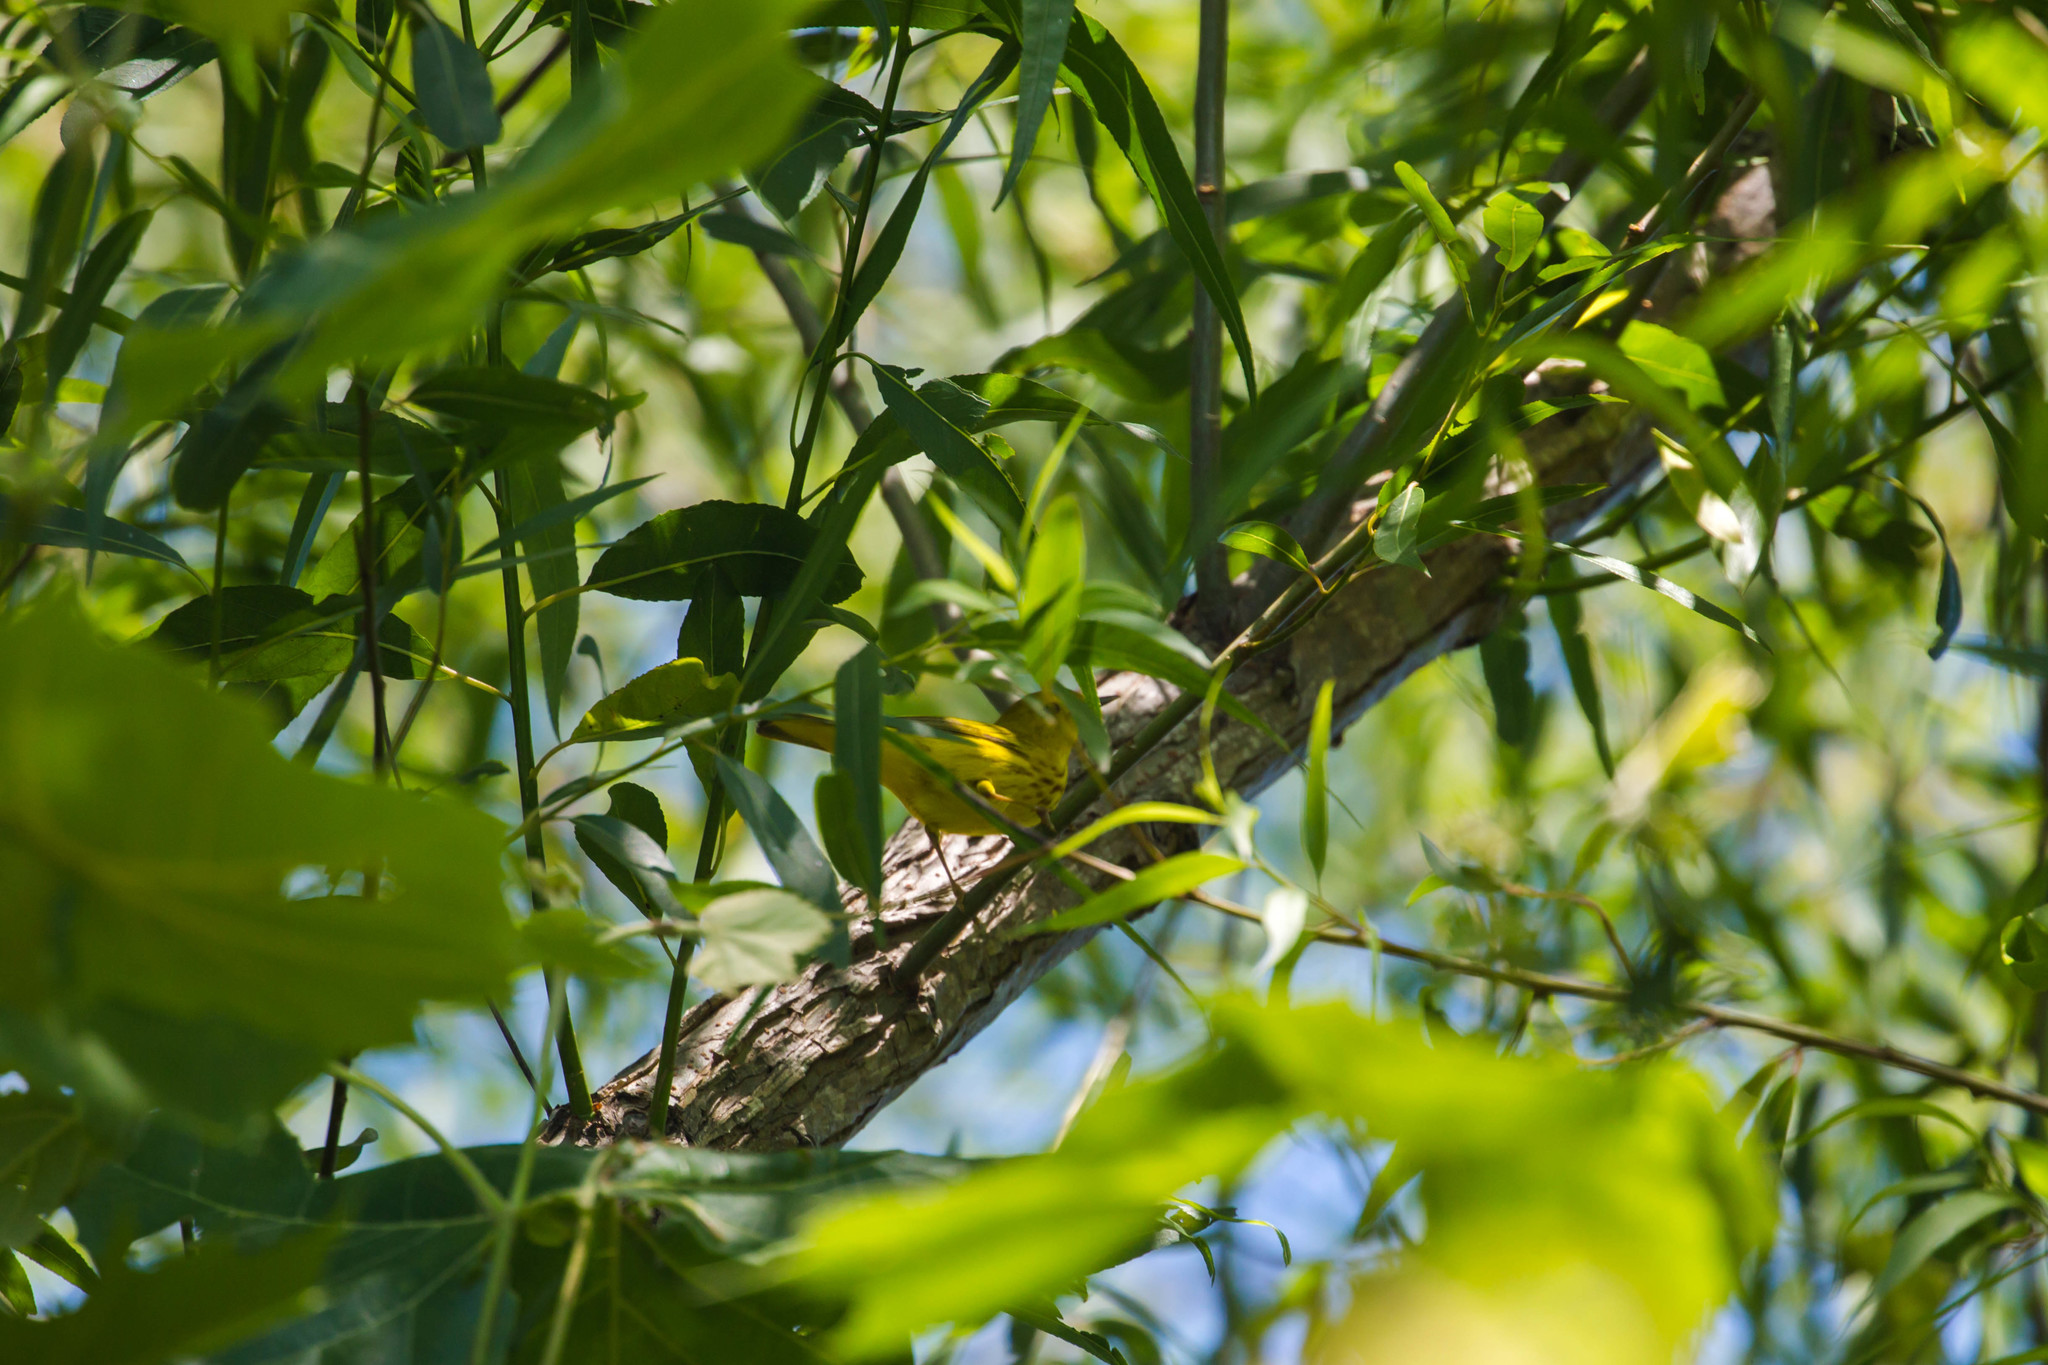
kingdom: Animalia
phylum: Chordata
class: Aves
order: Passeriformes
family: Parulidae
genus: Setophaga
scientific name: Setophaga petechia
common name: Yellow warbler
